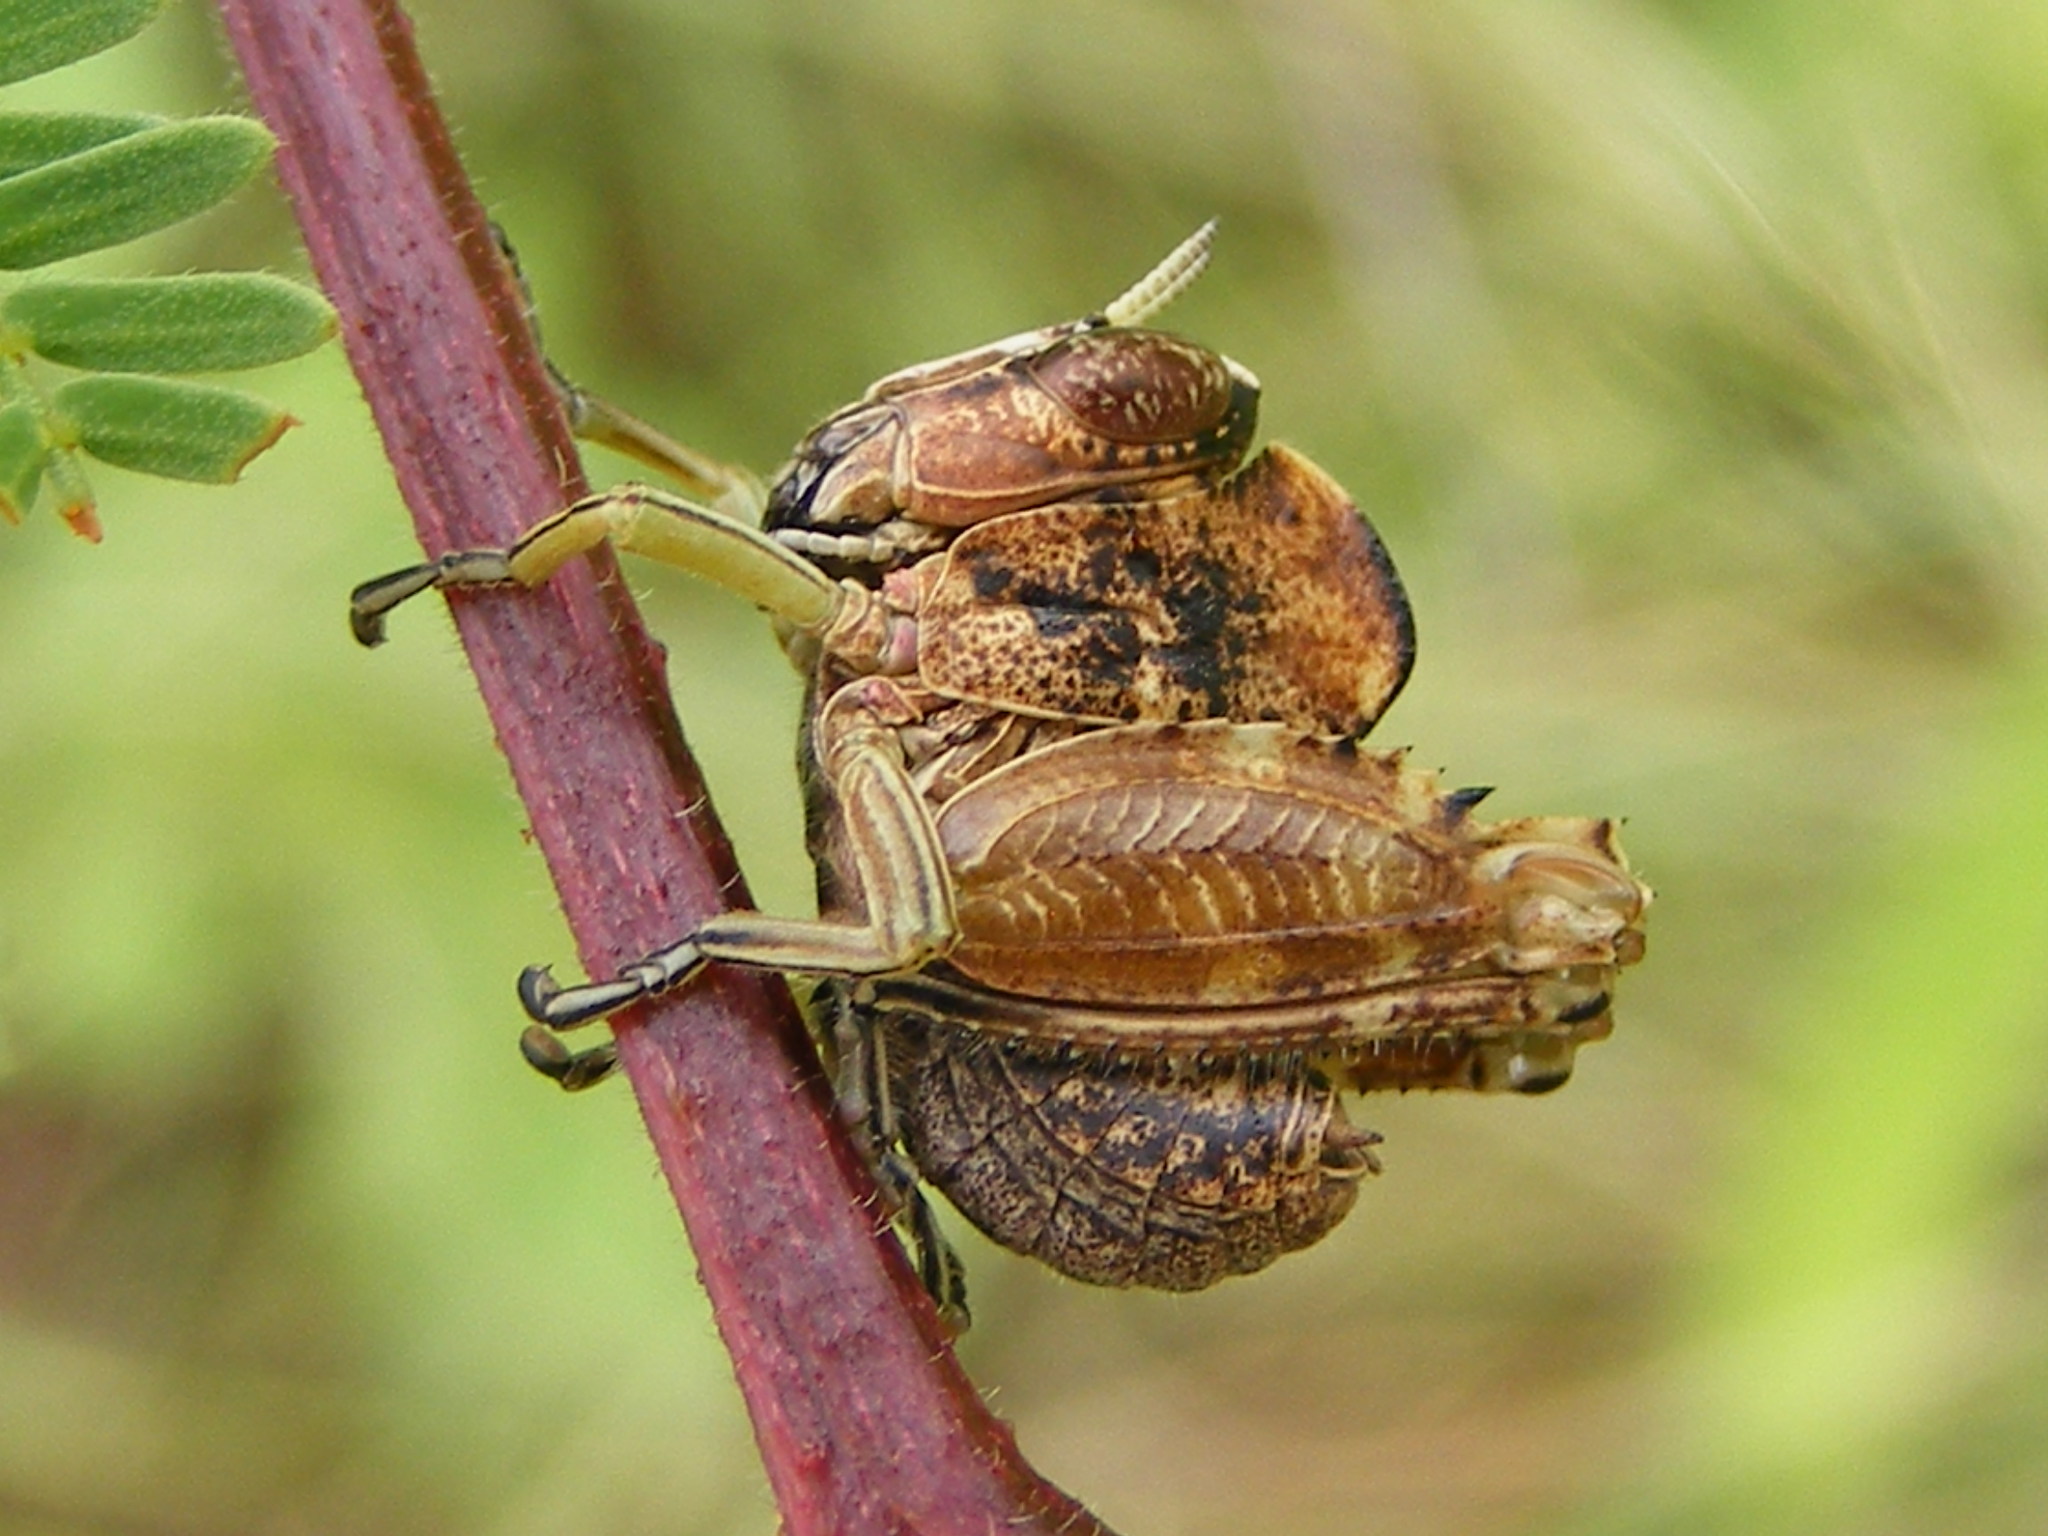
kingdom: Animalia
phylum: Arthropoda
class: Insecta
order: Orthoptera
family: Thericleidae
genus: Parathericles
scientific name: Parathericles elephantulus
